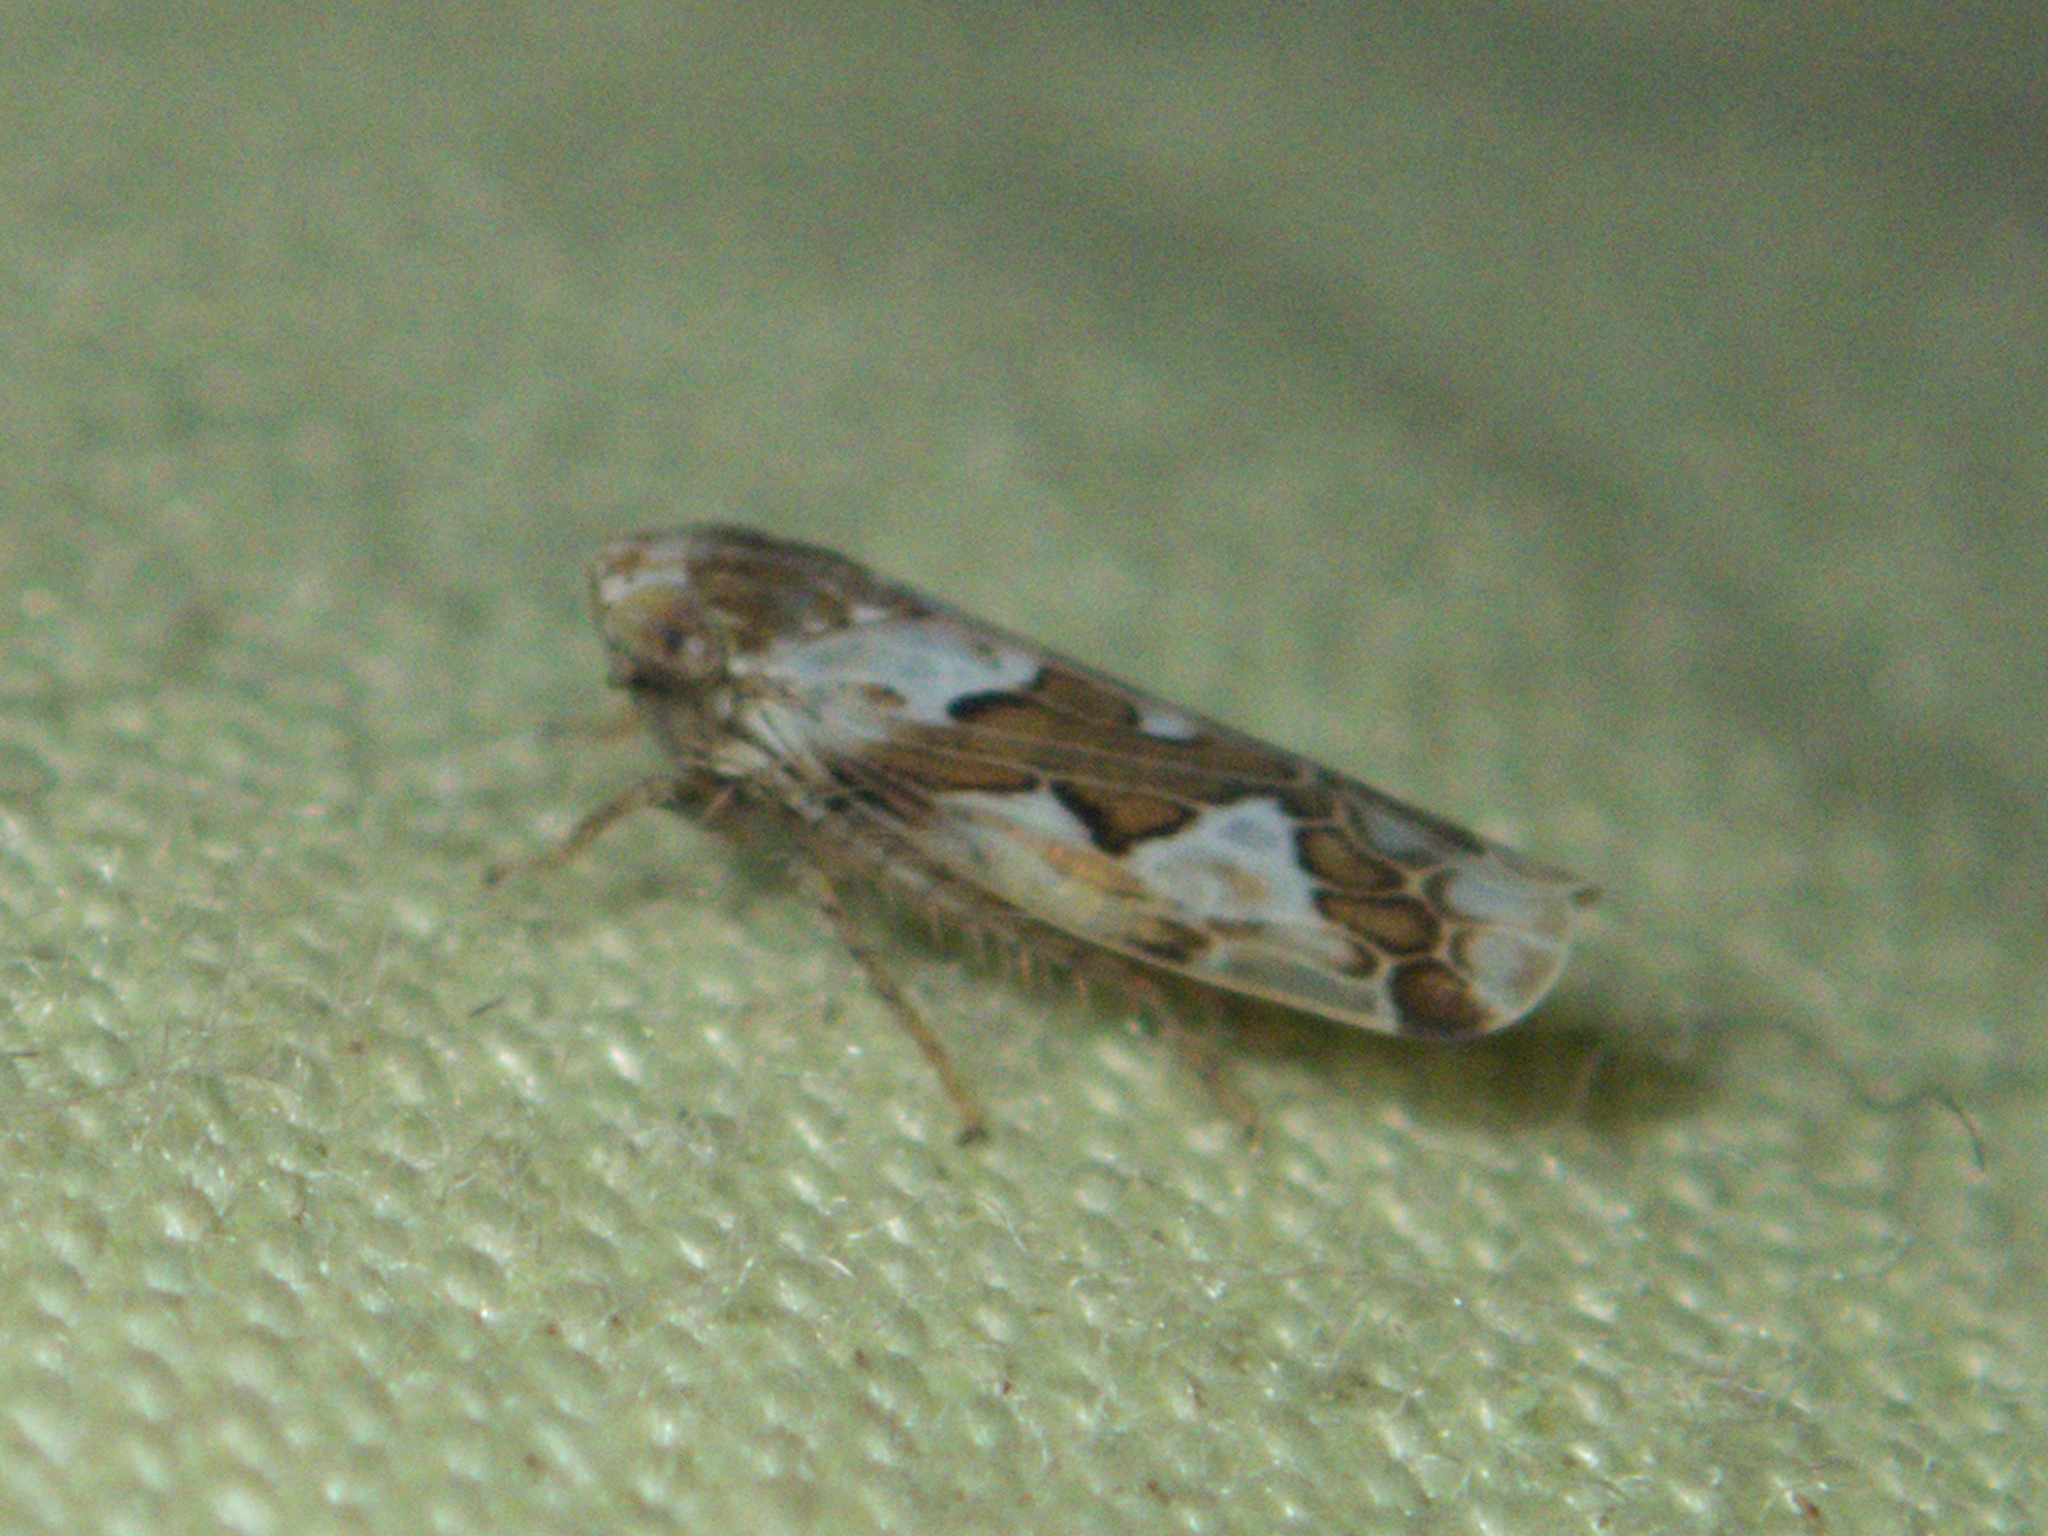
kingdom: Animalia
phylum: Arthropoda
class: Insecta
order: Hemiptera
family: Cicadellidae
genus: Maiestas
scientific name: Maiestas dorsalis
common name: Zig-zag leafhopper
